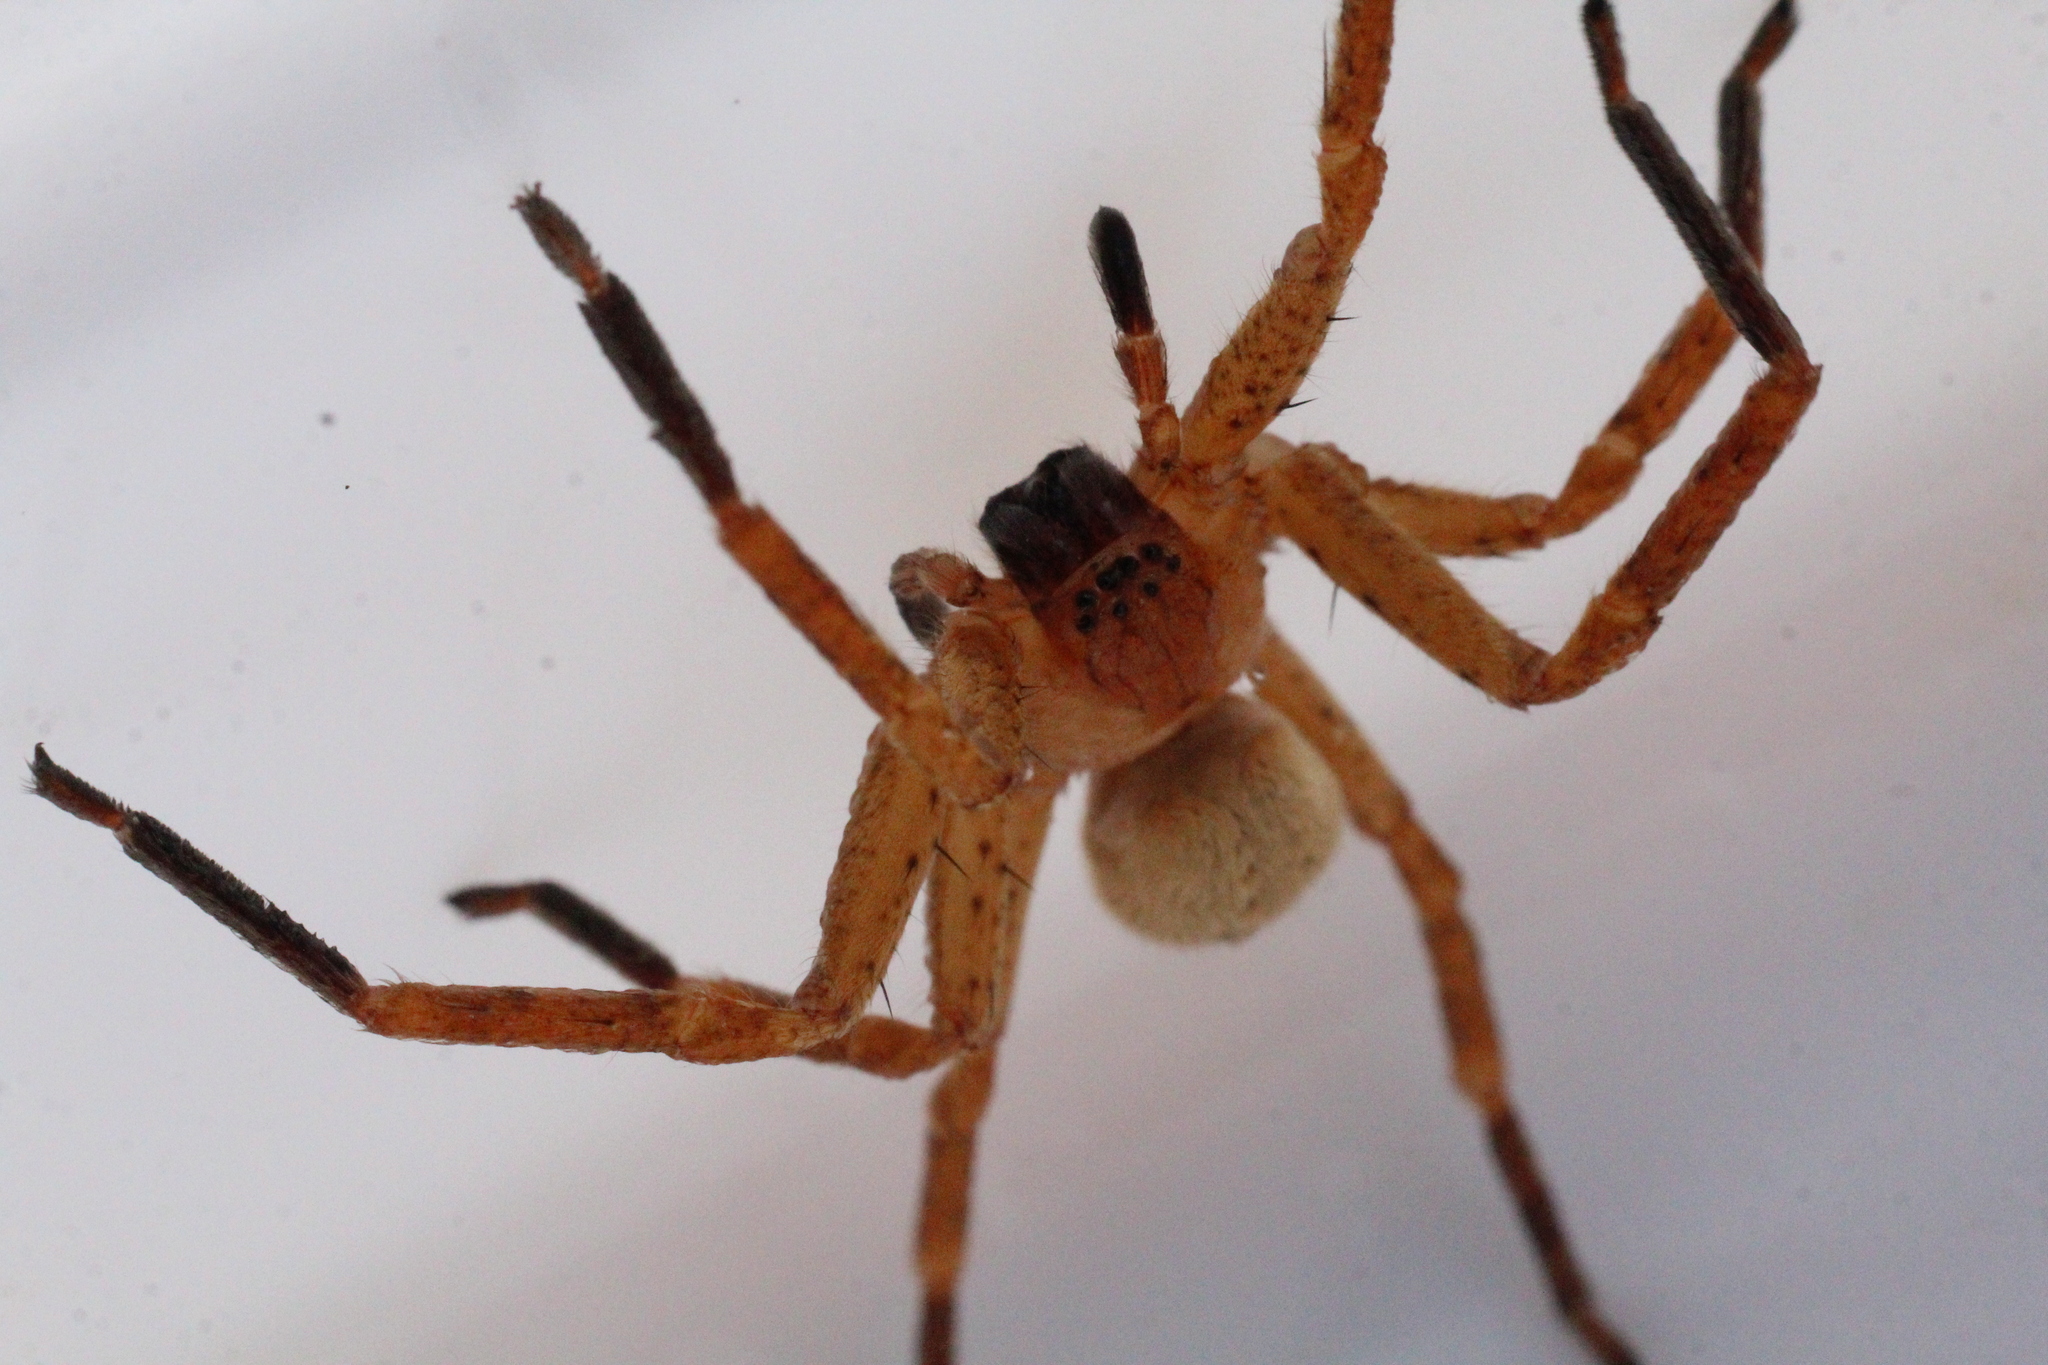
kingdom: Animalia
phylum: Arthropoda
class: Arachnida
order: Araneae
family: Sparassidae
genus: Olios
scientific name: Olios argelasius
